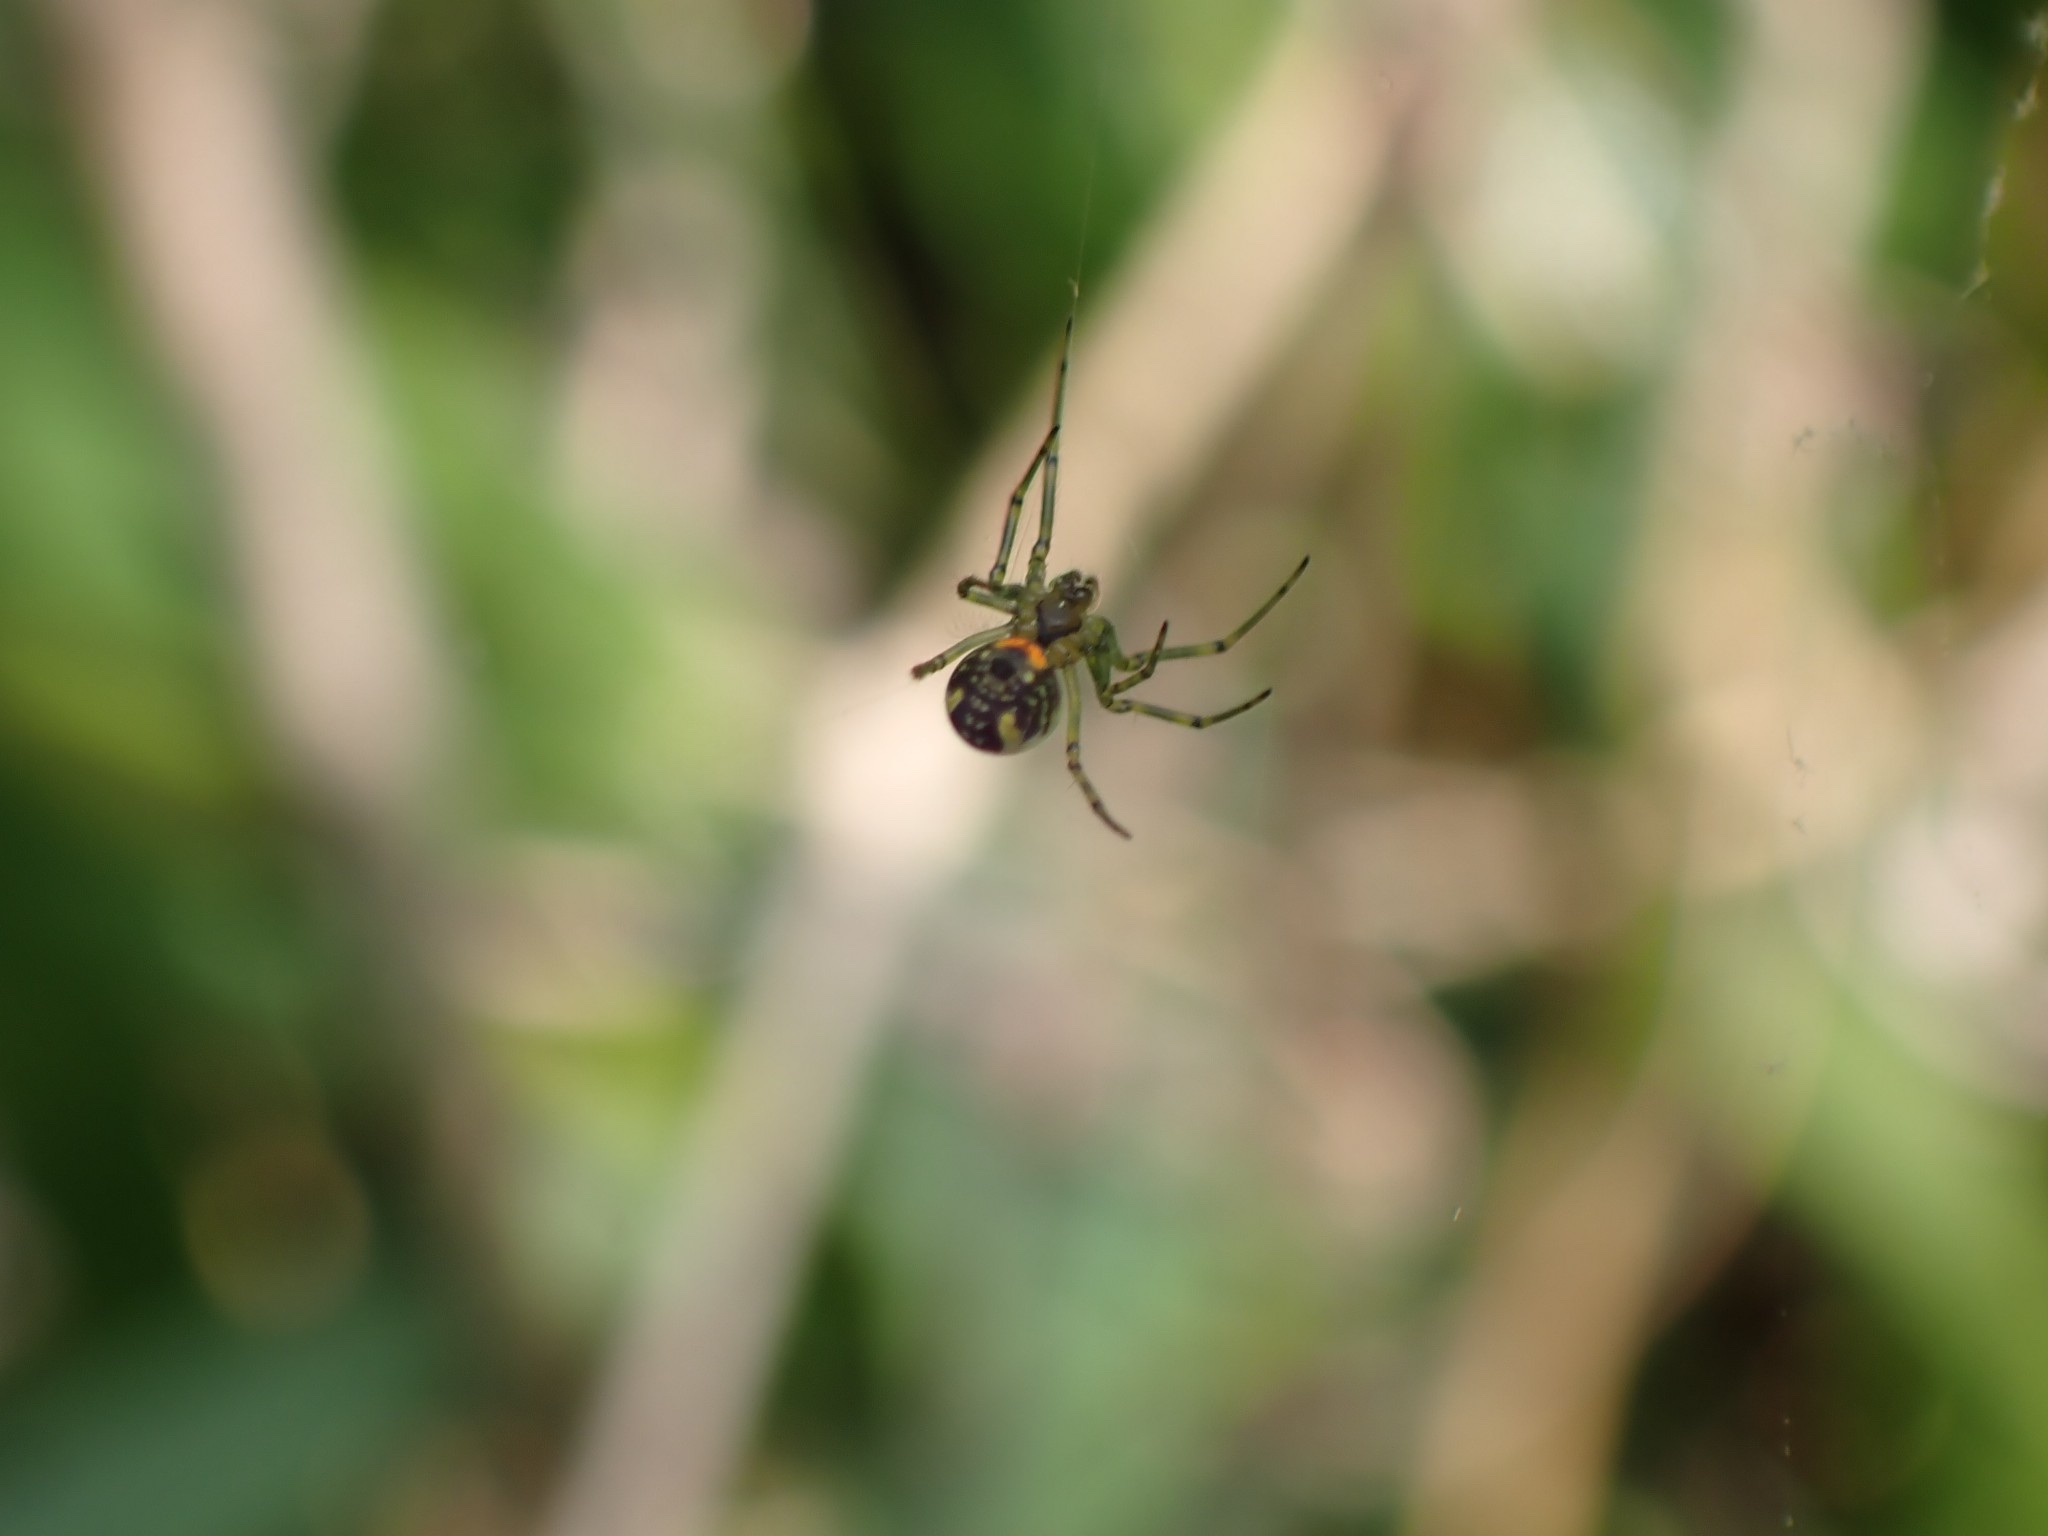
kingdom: Animalia
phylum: Arthropoda
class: Arachnida
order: Araneae
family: Tetragnathidae
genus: Leucauge
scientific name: Leucauge venusta
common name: Longjawed orb weavers
